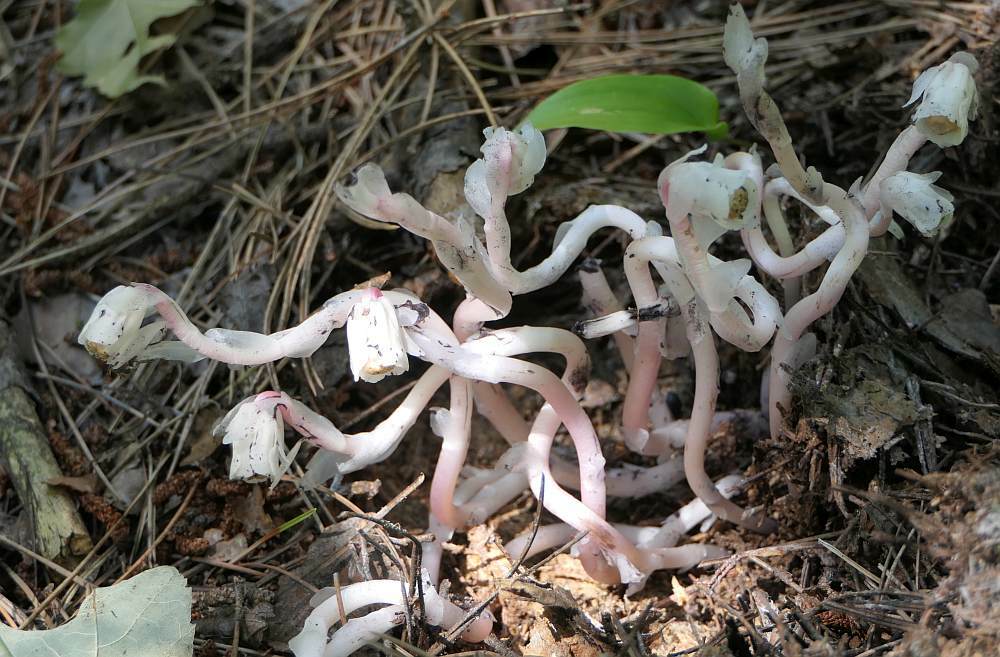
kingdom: Plantae
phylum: Tracheophyta
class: Magnoliopsida
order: Ericales
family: Ericaceae
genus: Monotropa
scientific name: Monotropa uniflora
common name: Convulsion root
